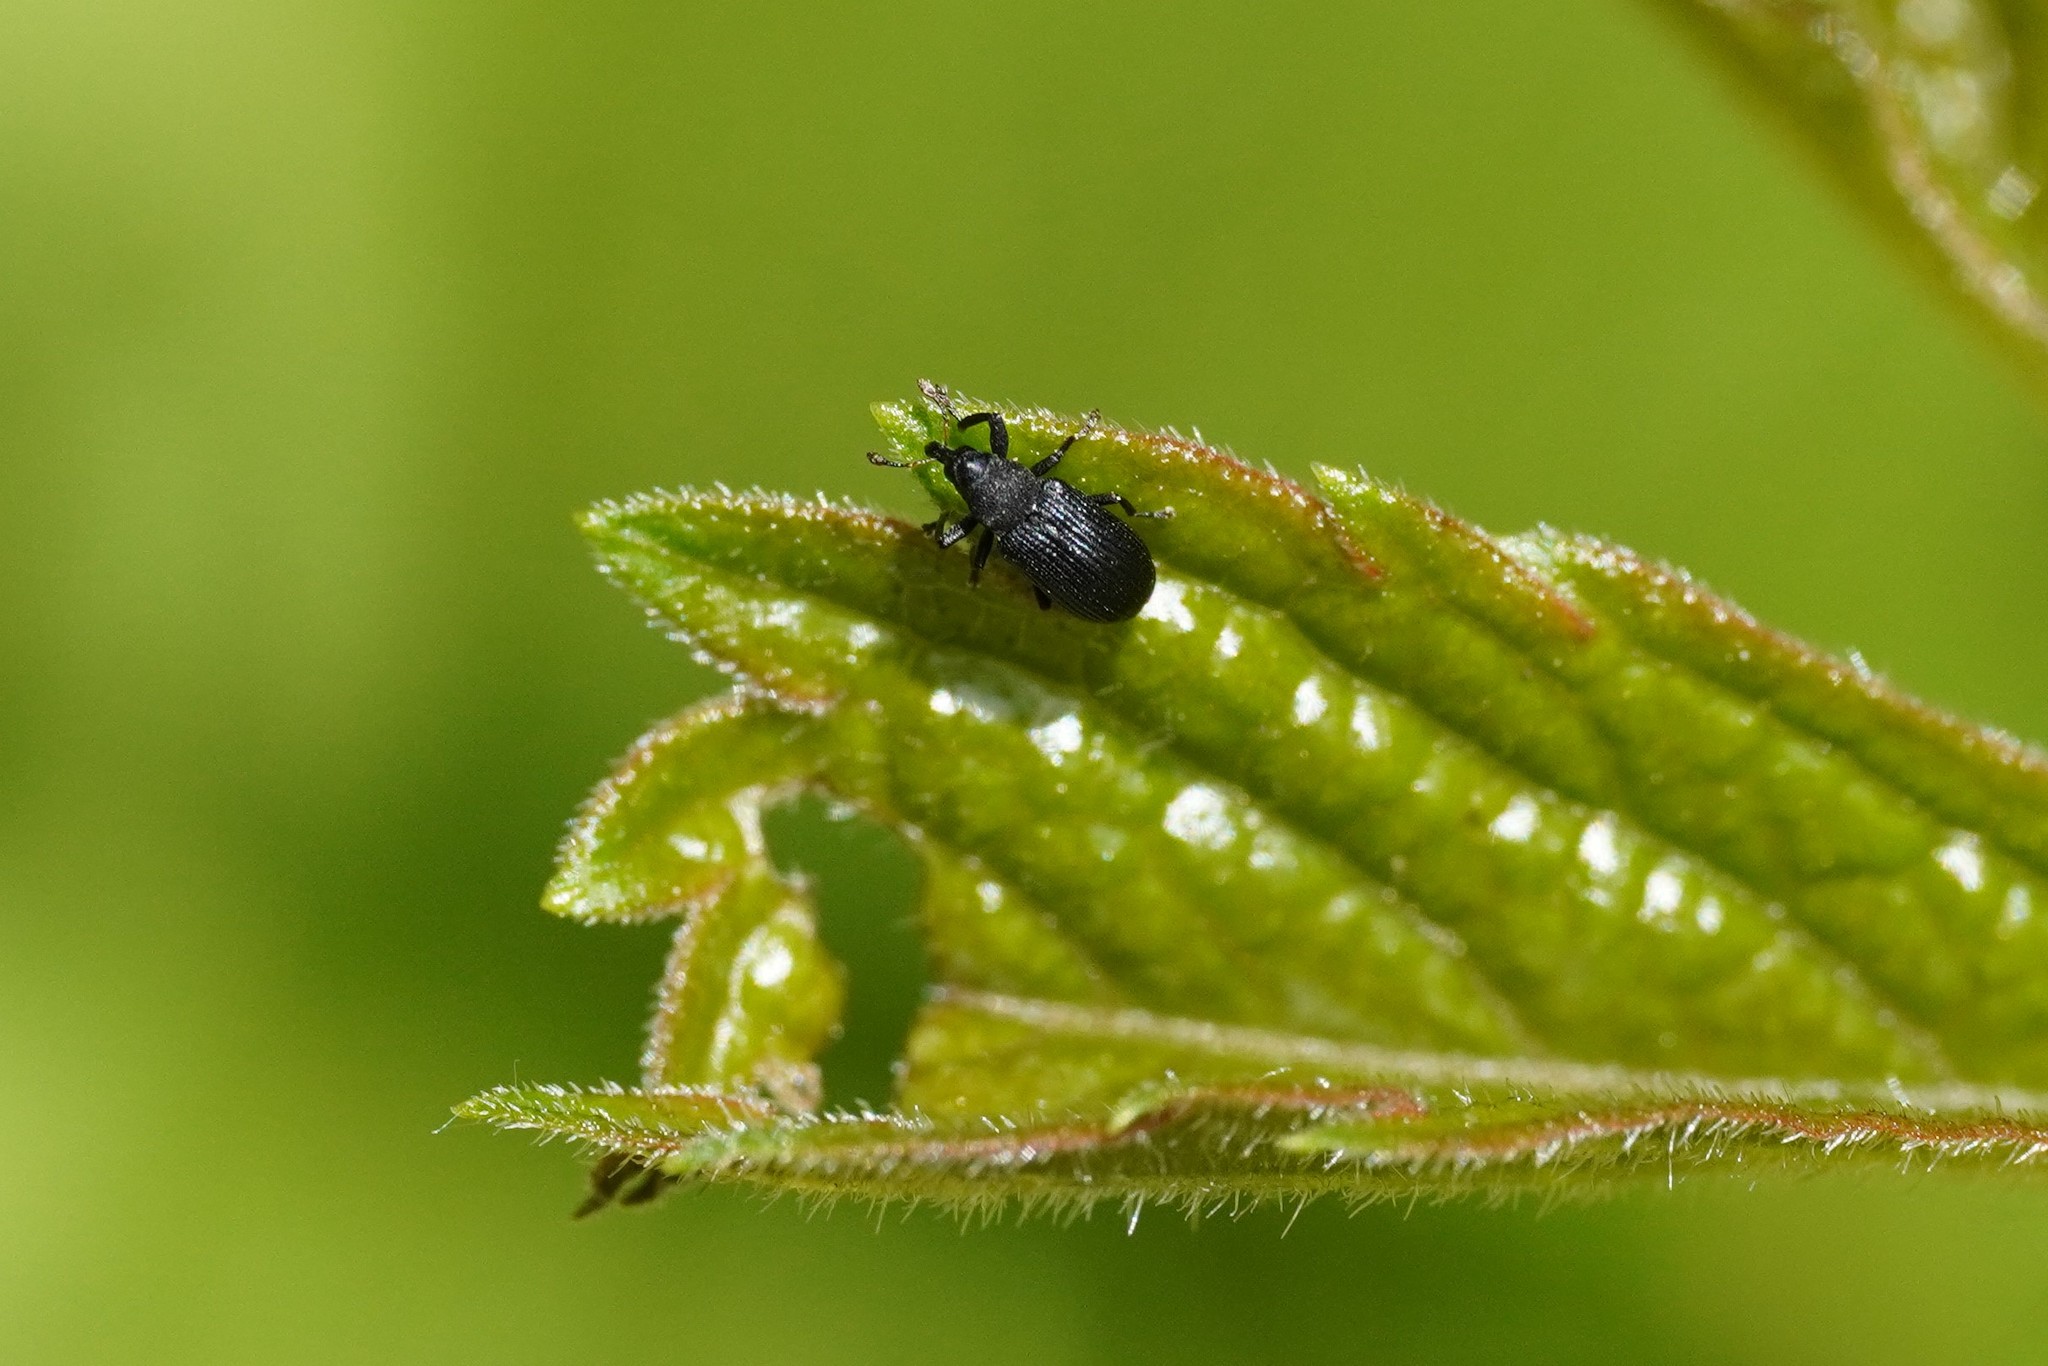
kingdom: Animalia
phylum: Arthropoda
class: Insecta
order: Coleoptera
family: Curculionidae
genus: Magdalis
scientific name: Magdalis ruficornis
